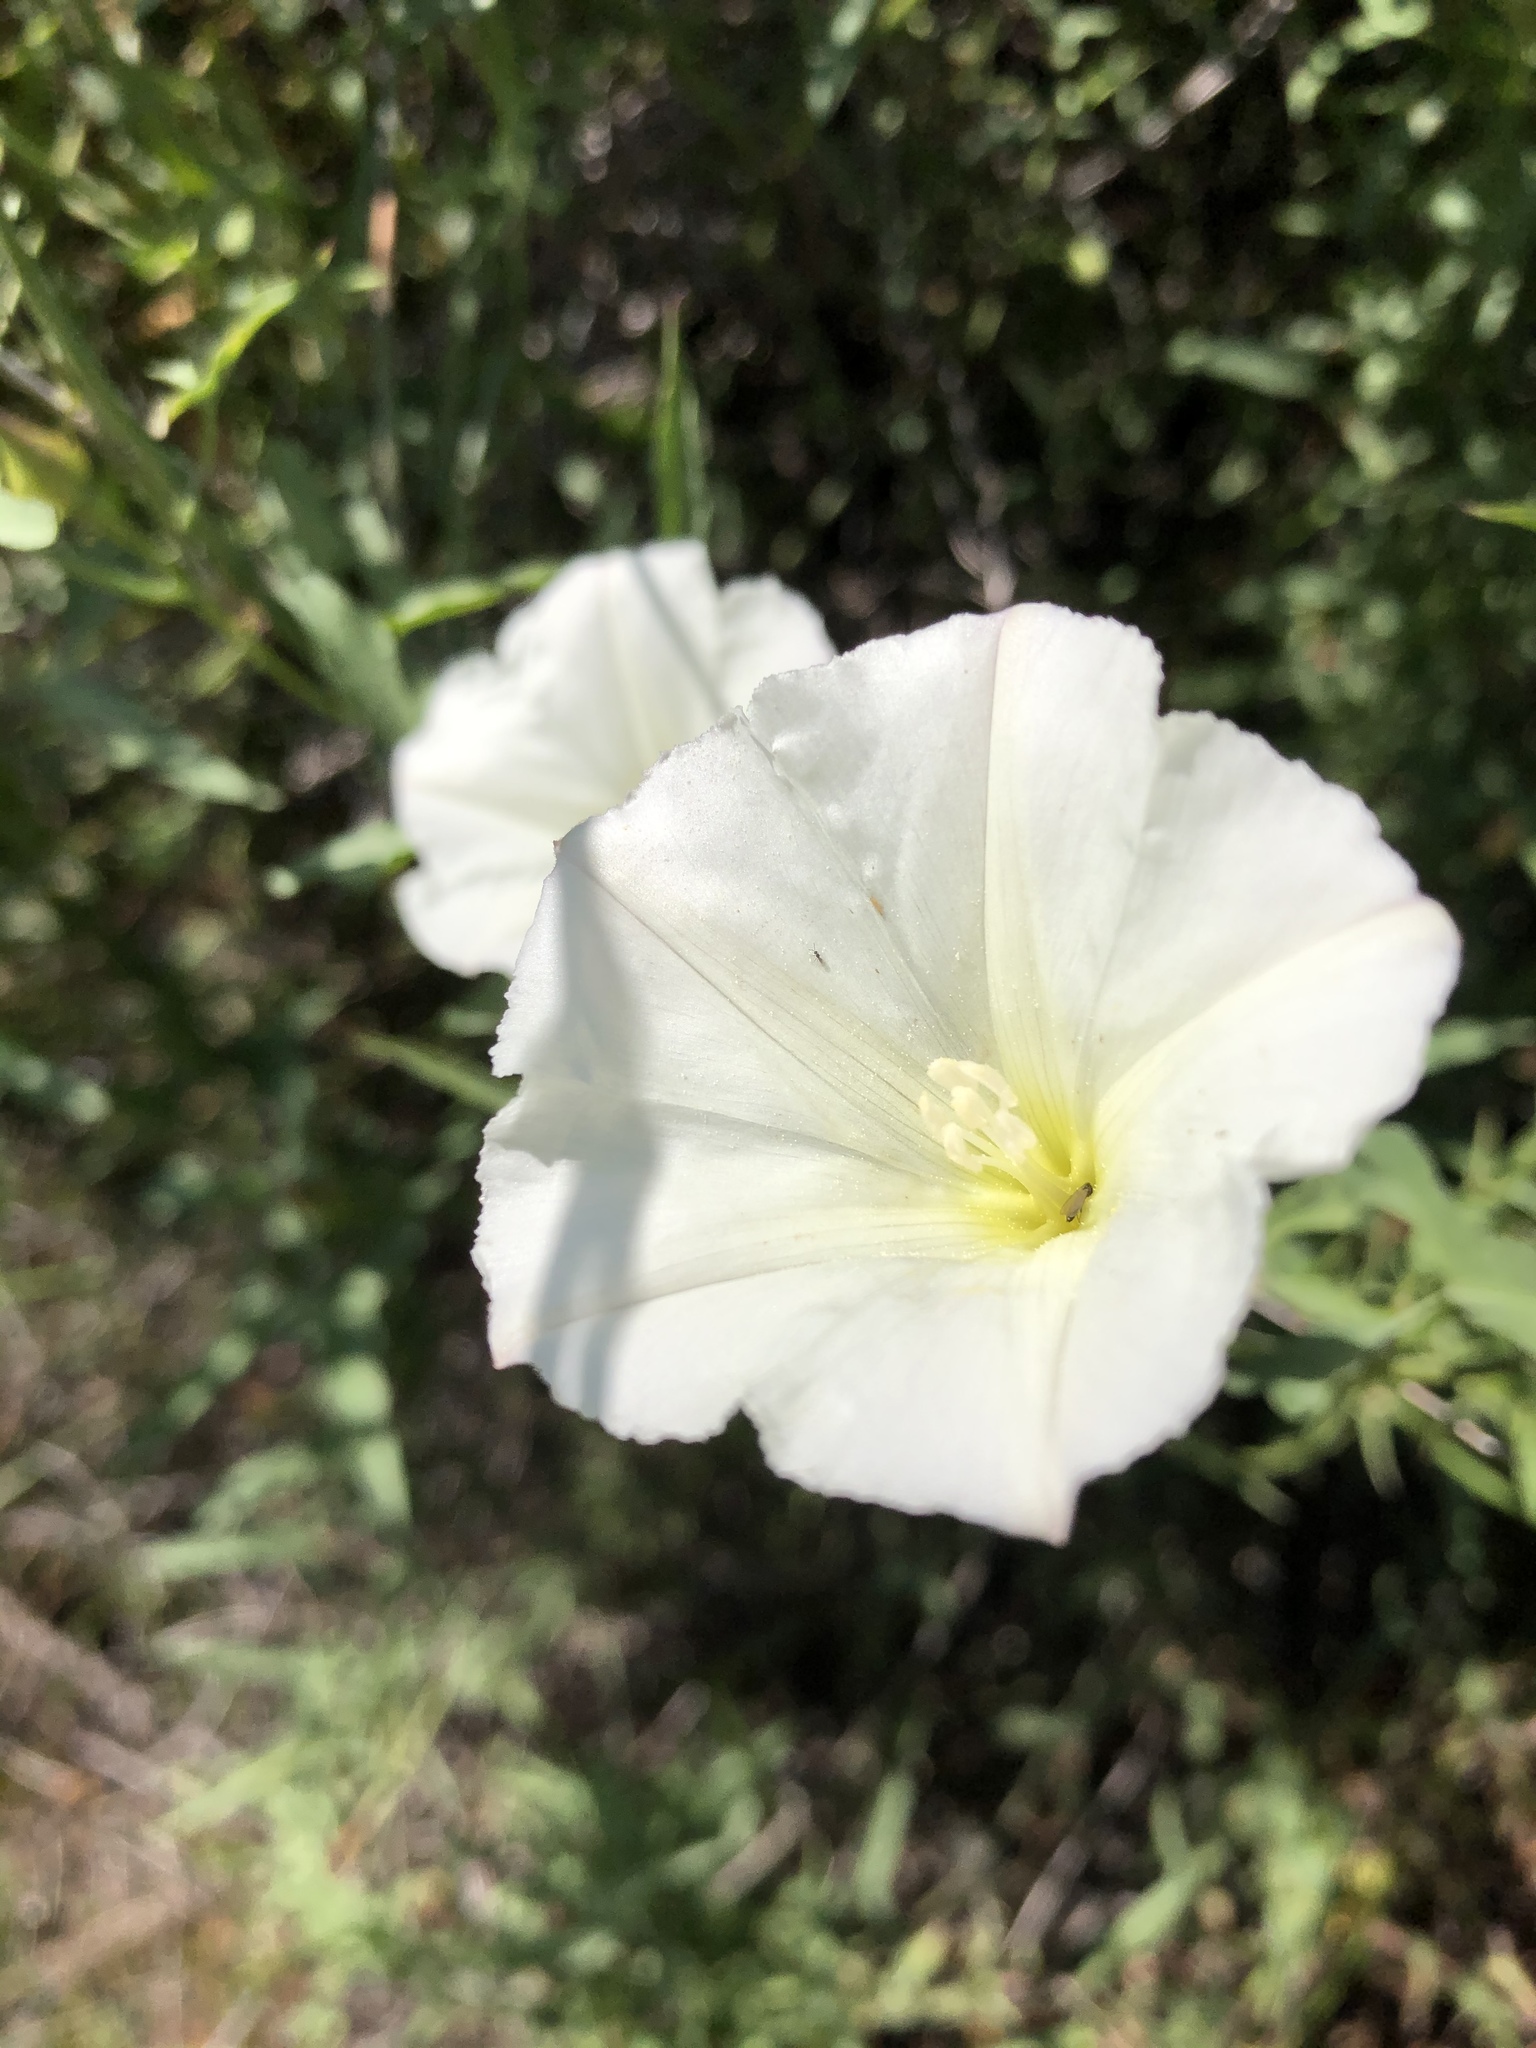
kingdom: Plantae
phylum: Tracheophyta
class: Magnoliopsida
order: Solanales
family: Convolvulaceae
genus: Calystegia
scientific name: Calystegia macrostegia
